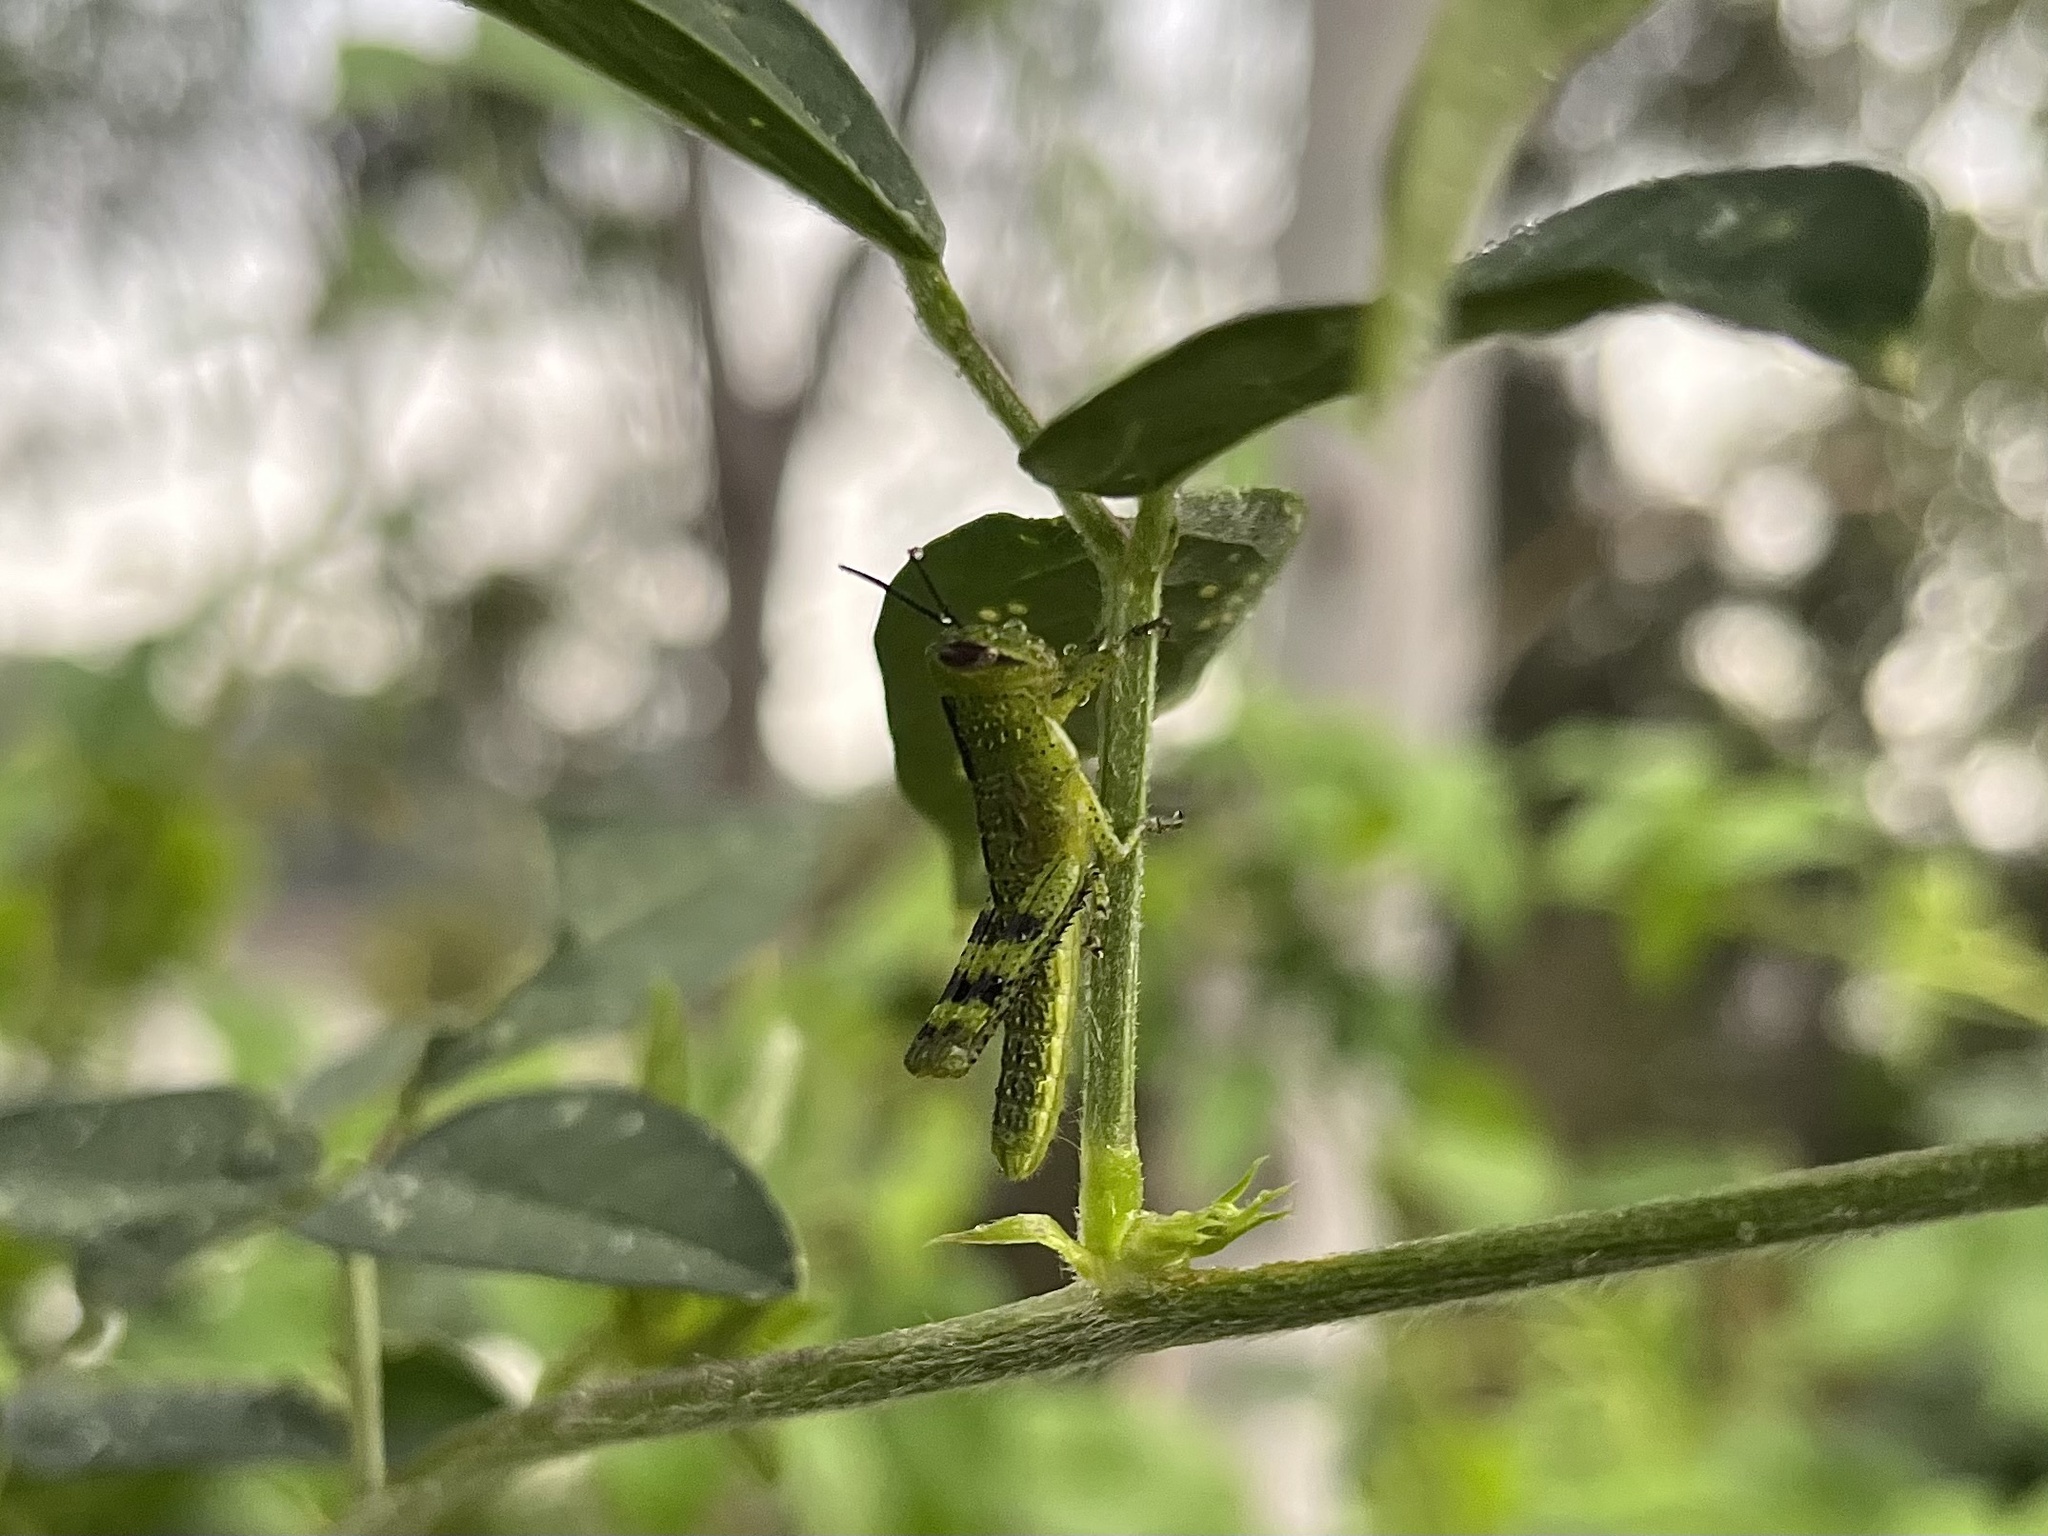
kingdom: Animalia
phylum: Arthropoda
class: Insecta
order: Orthoptera
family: Acrididae
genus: Valanga
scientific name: Valanga irregularis
